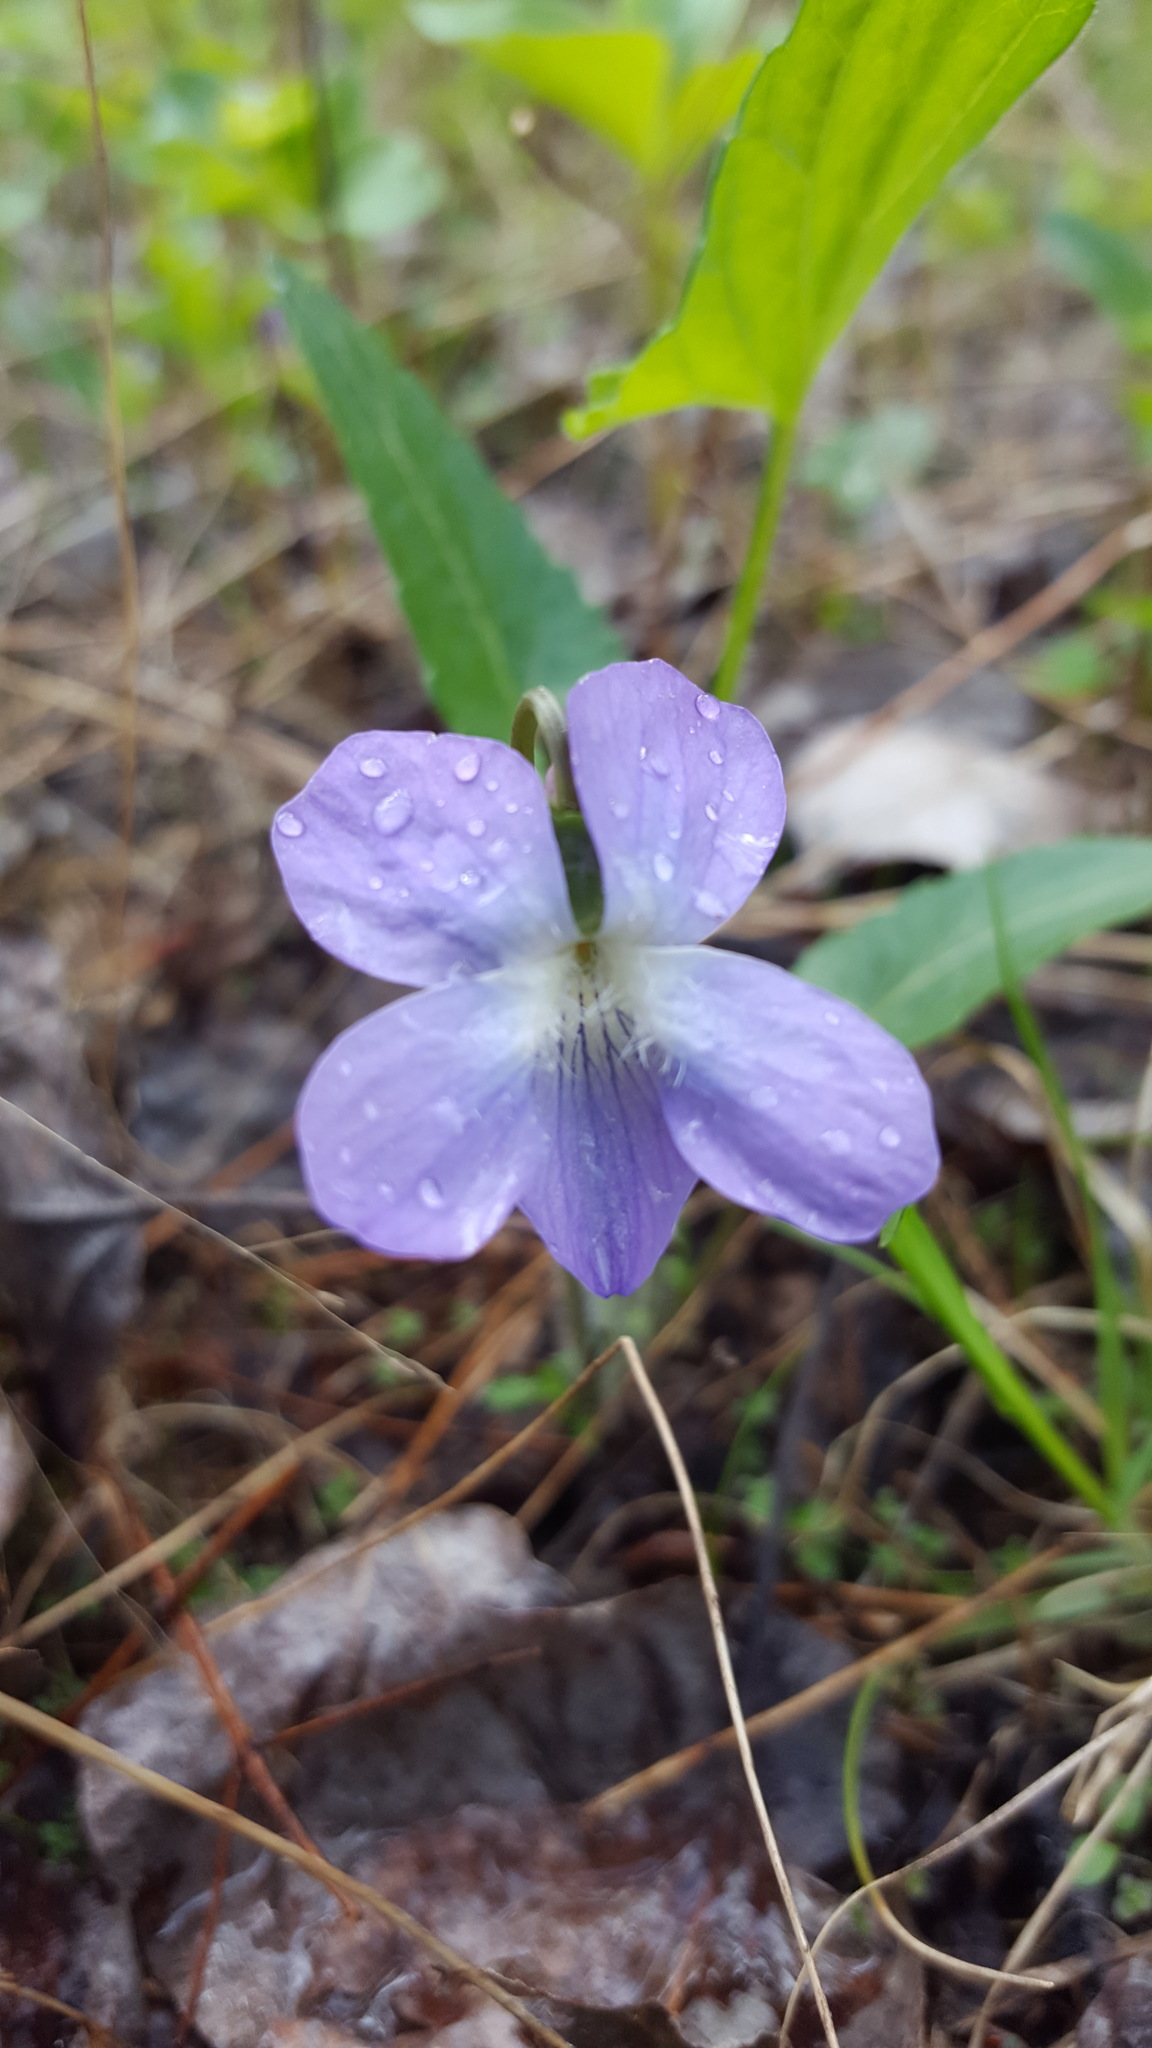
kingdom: Plantae
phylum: Tracheophyta
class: Magnoliopsida
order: Malpighiales
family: Violaceae
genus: Viola
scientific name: Viola novae-angliae
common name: New england blue violet
